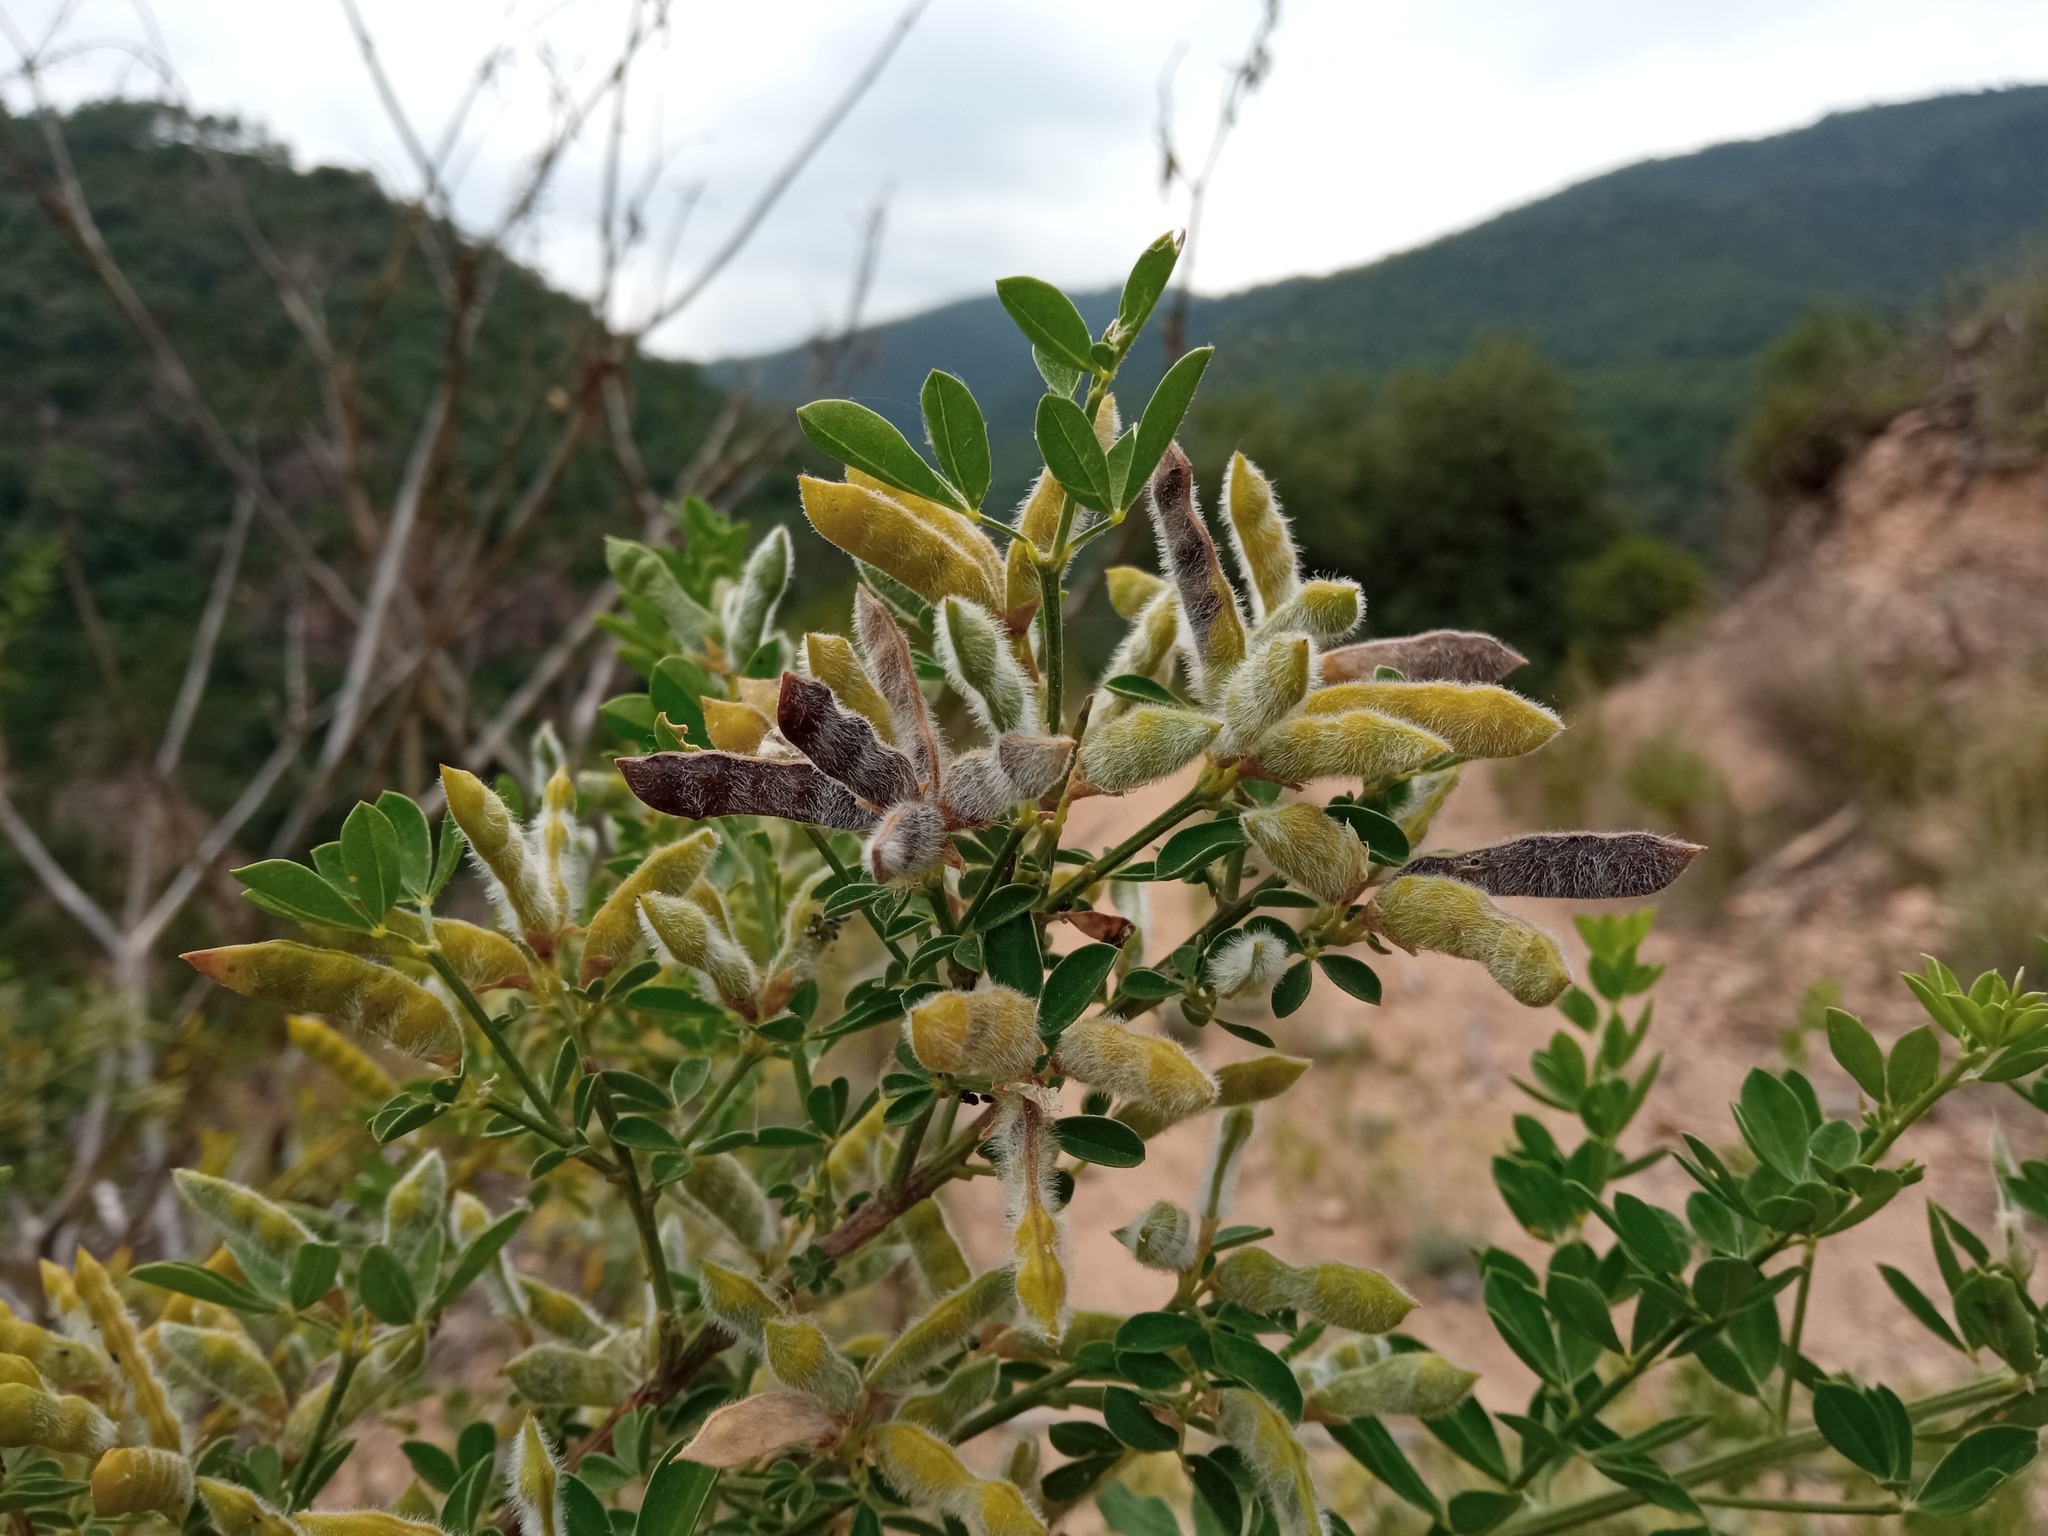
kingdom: Plantae
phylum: Tracheophyta
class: Magnoliopsida
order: Fabales
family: Fabaceae
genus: Genista
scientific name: Genista monspessulana
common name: Montpellier broom
